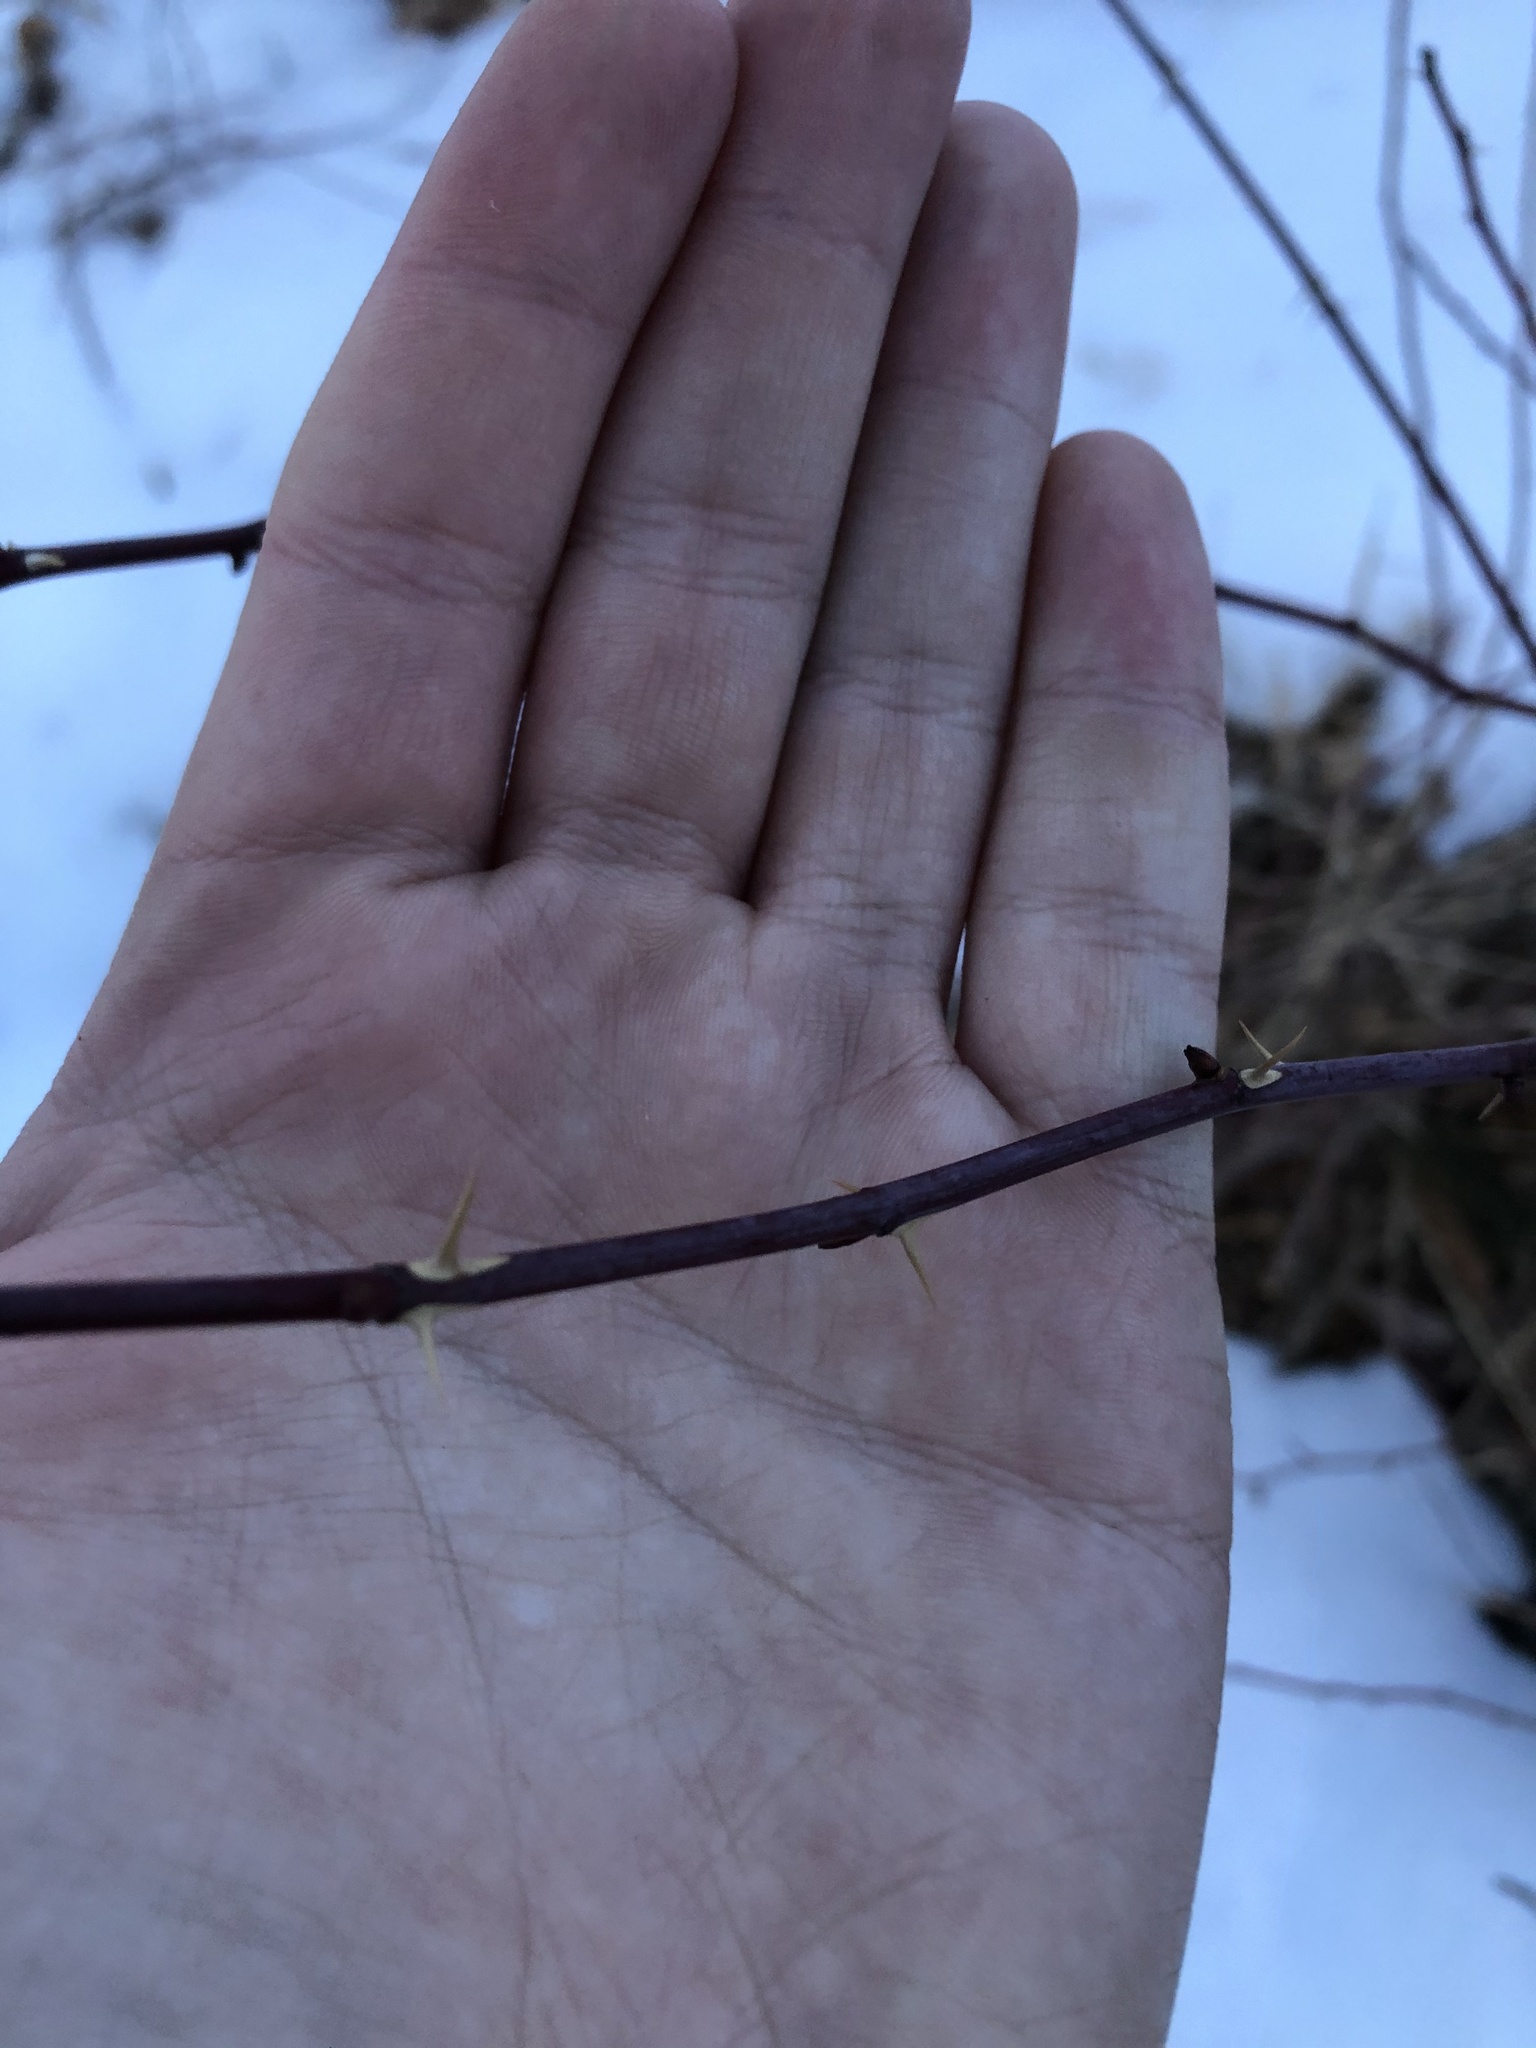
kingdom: Plantae
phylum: Tracheophyta
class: Magnoliopsida
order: Rosales
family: Rosaceae
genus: Rosa
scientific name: Rosa woodsii
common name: Woods's rose
